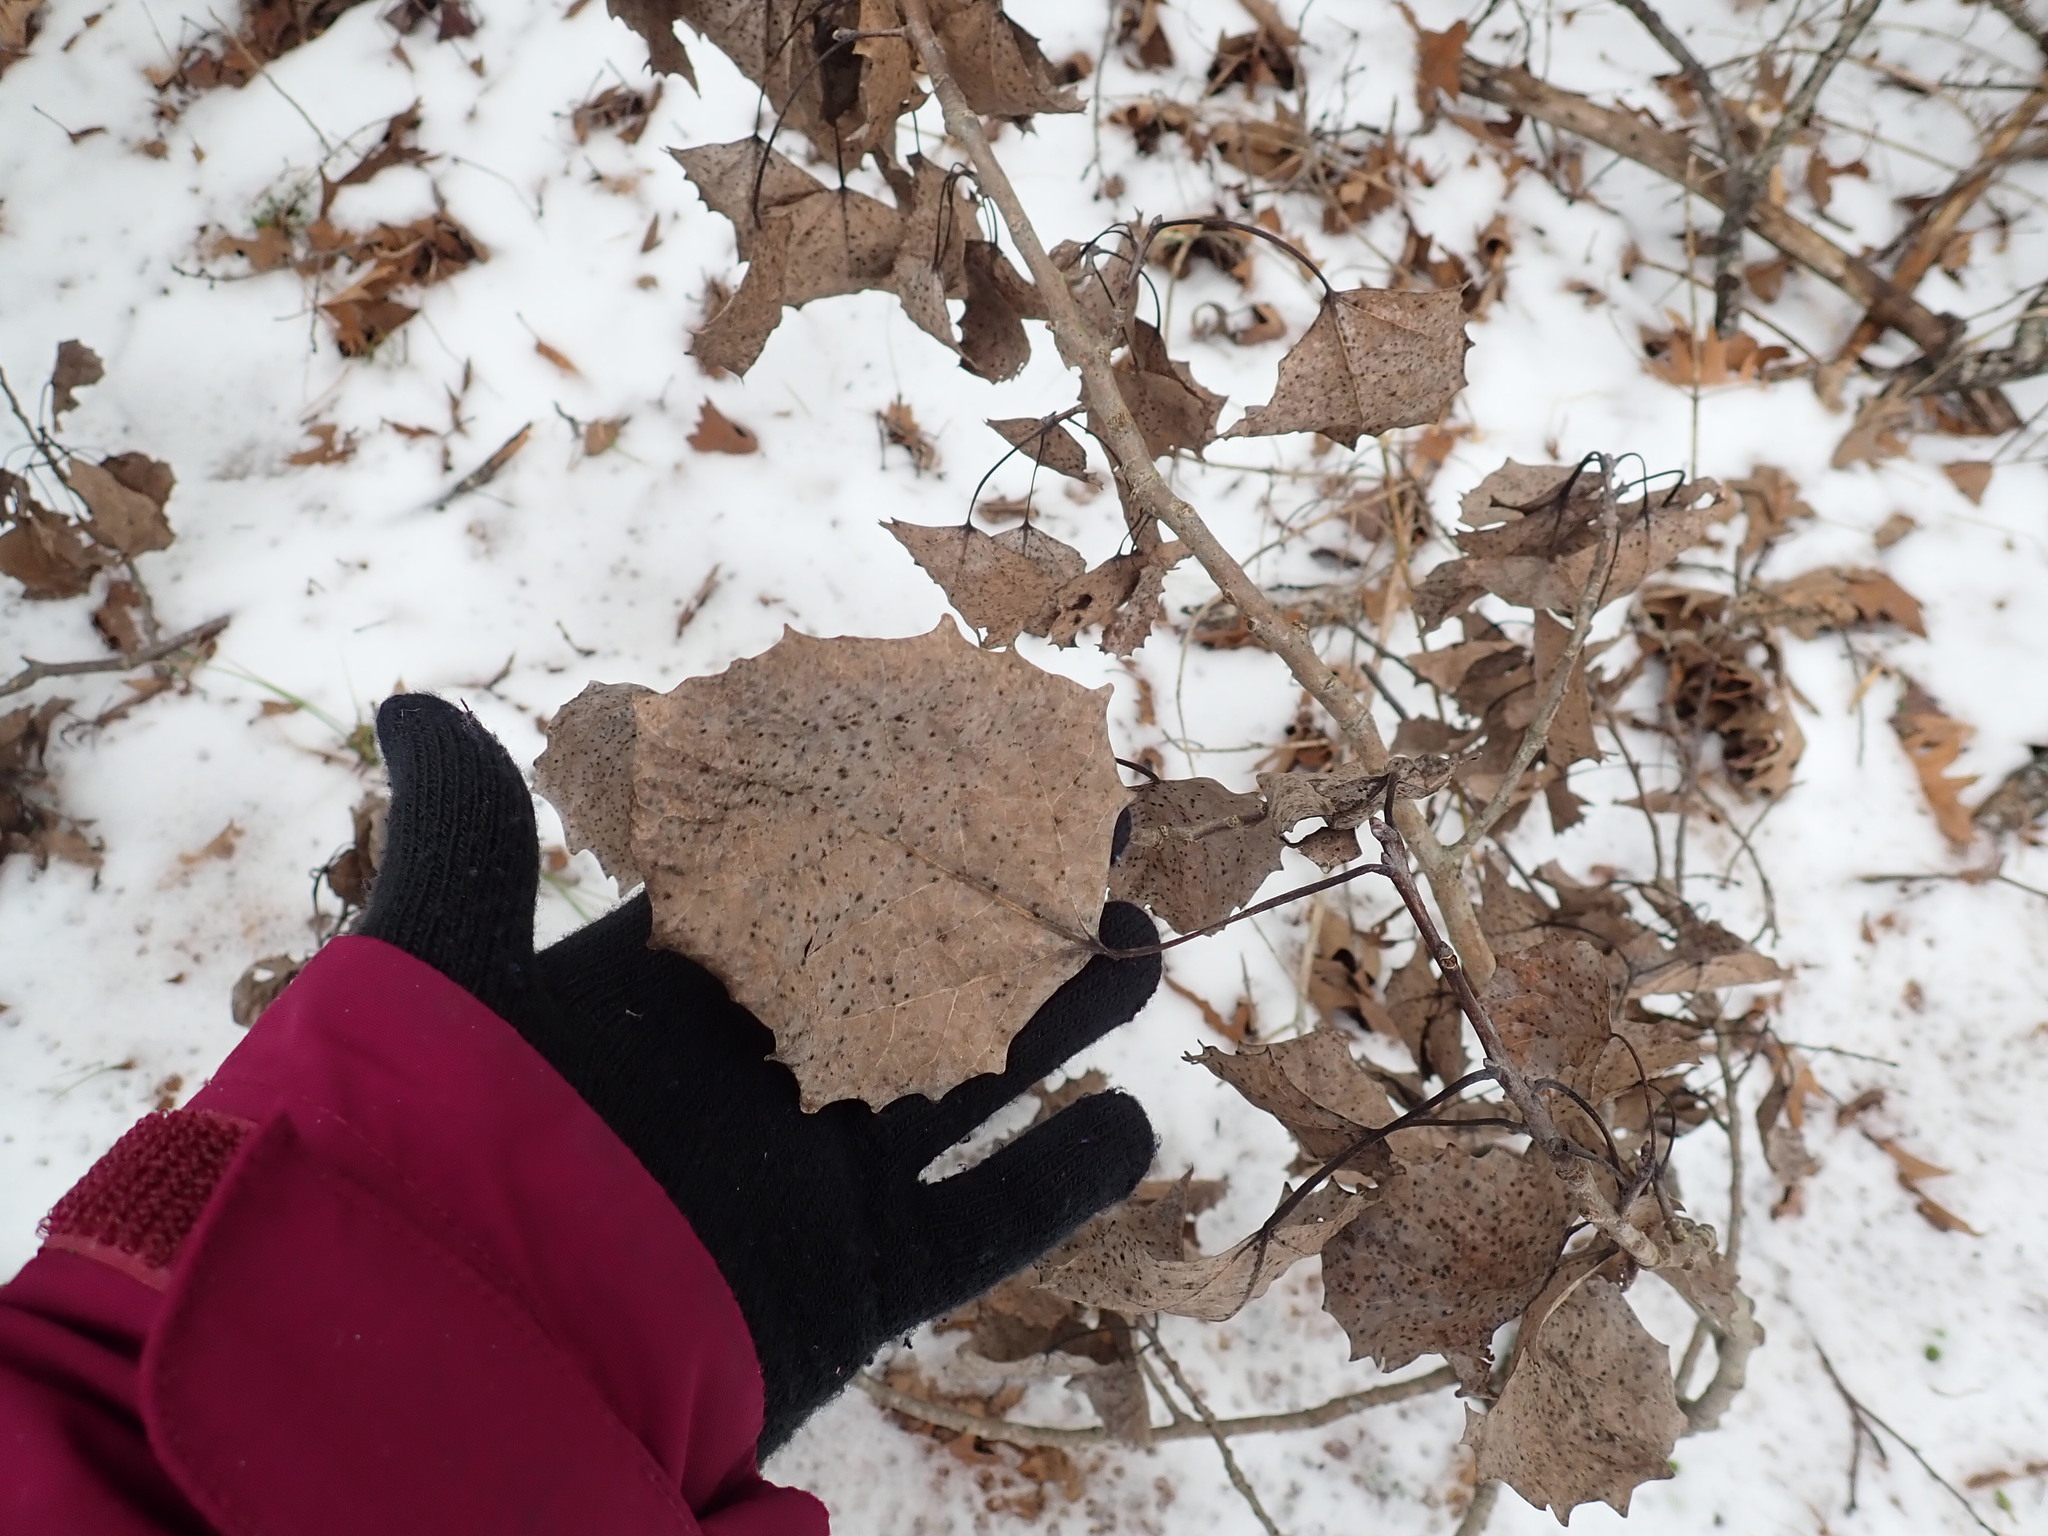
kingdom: Plantae
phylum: Tracheophyta
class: Magnoliopsida
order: Malpighiales
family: Salicaceae
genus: Populus
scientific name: Populus grandidentata
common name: Bigtooth aspen
